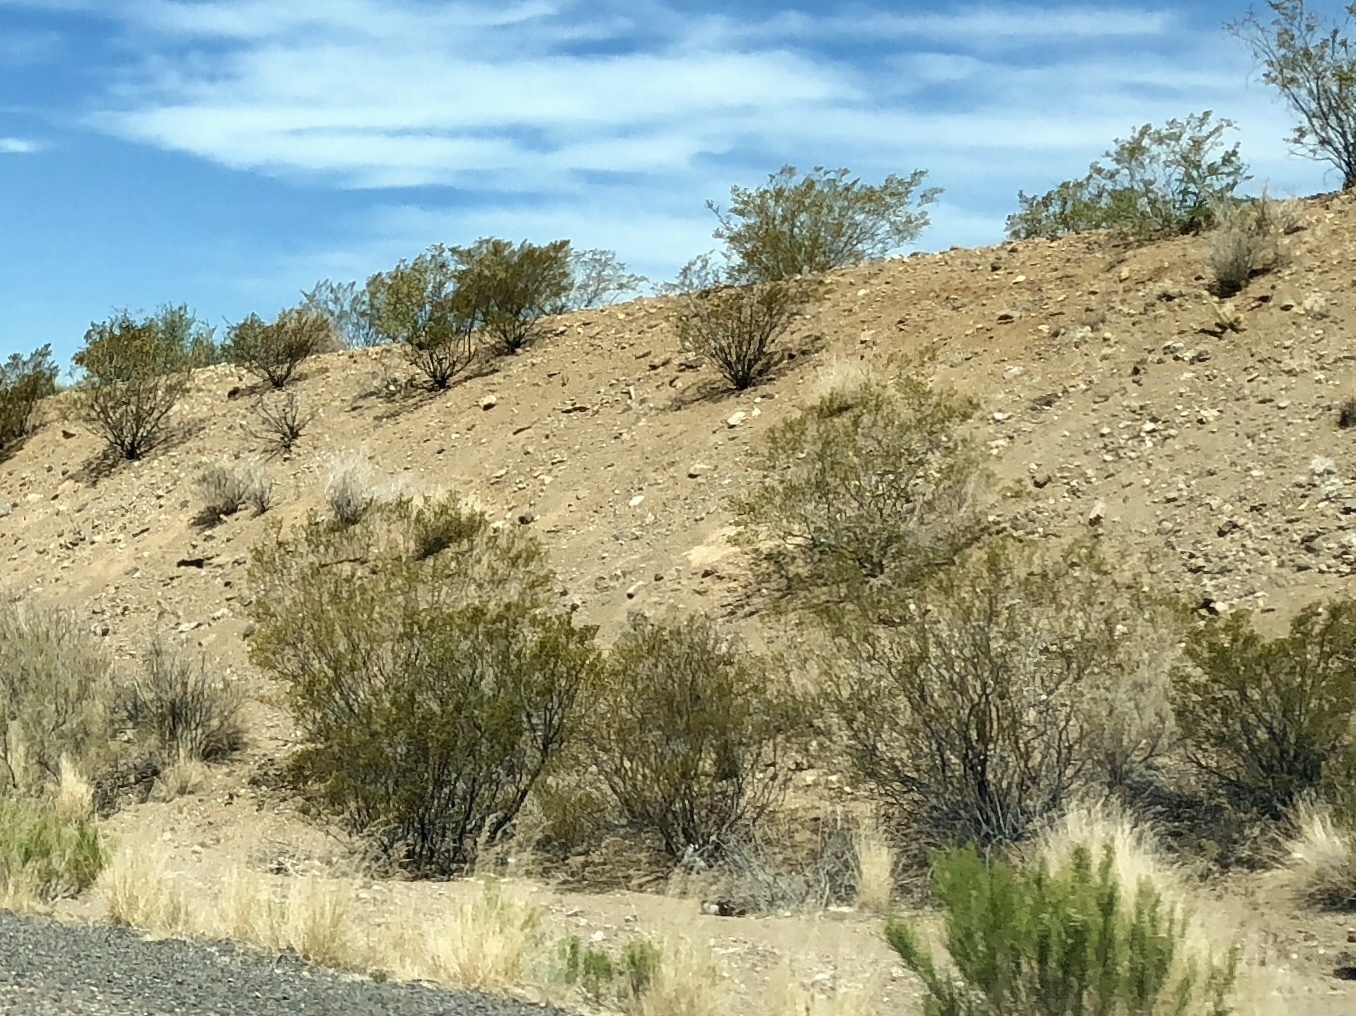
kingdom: Plantae
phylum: Tracheophyta
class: Magnoliopsida
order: Zygophyllales
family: Zygophyllaceae
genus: Larrea
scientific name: Larrea tridentata
